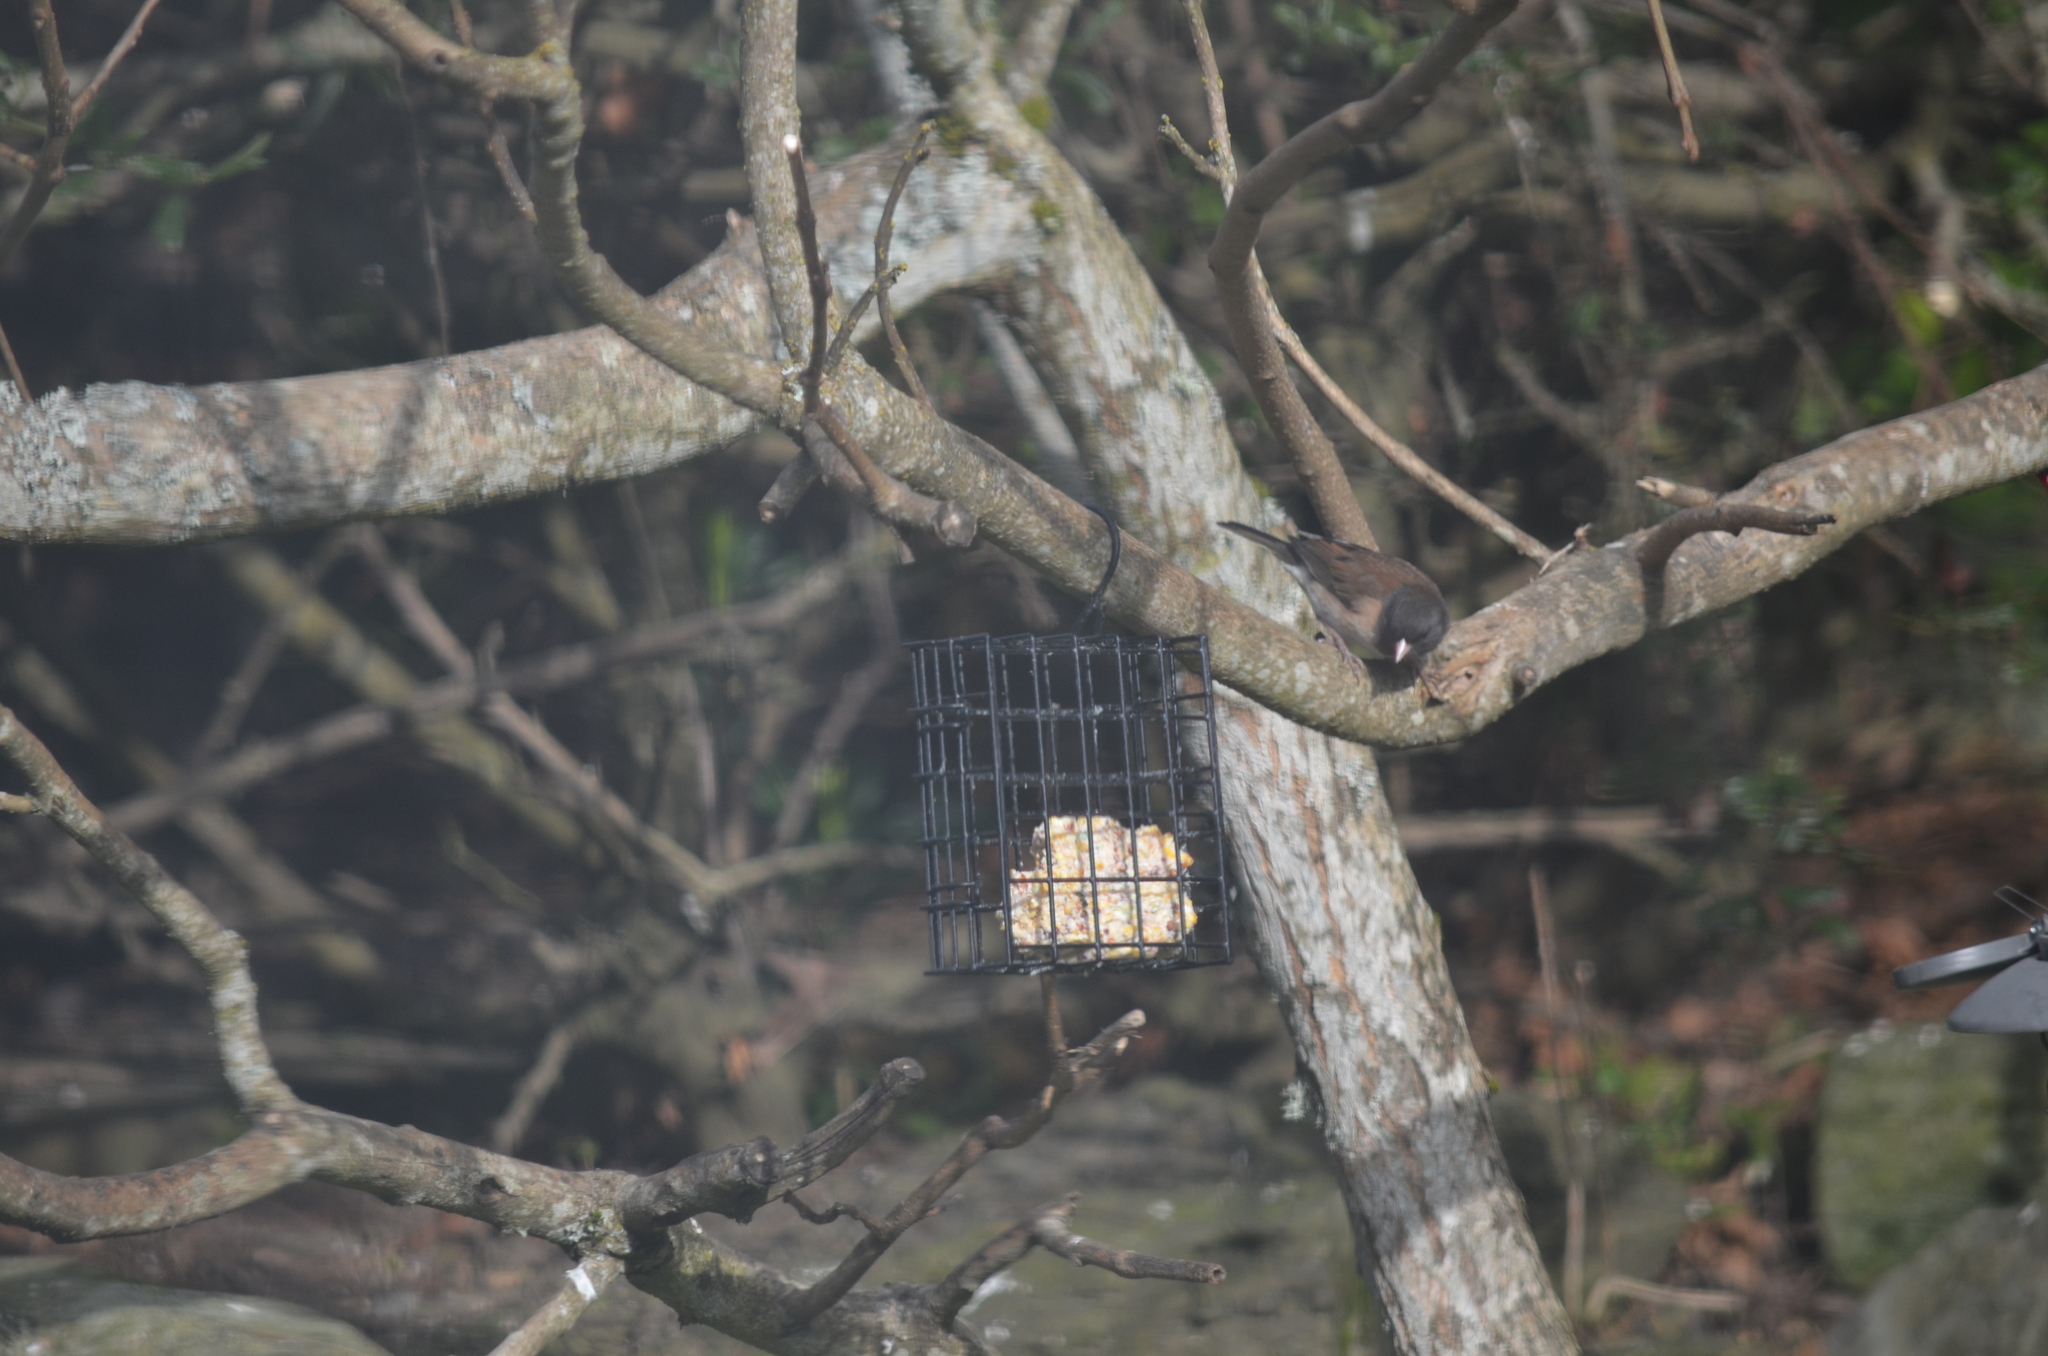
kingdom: Animalia
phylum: Chordata
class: Aves
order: Passeriformes
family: Passerellidae
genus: Junco
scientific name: Junco hyemalis
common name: Dark-eyed junco
